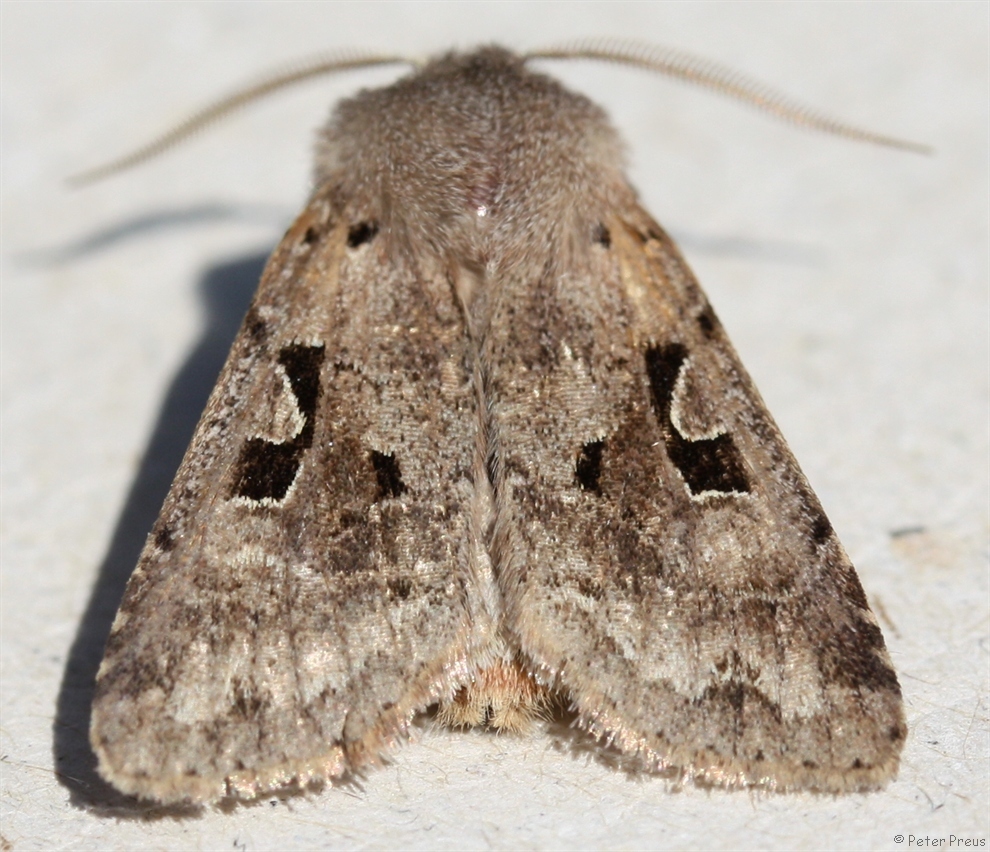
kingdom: Animalia
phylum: Arthropoda
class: Insecta
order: Lepidoptera
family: Noctuidae
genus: Orthosia
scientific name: Orthosia gothica
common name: Hebrew character
